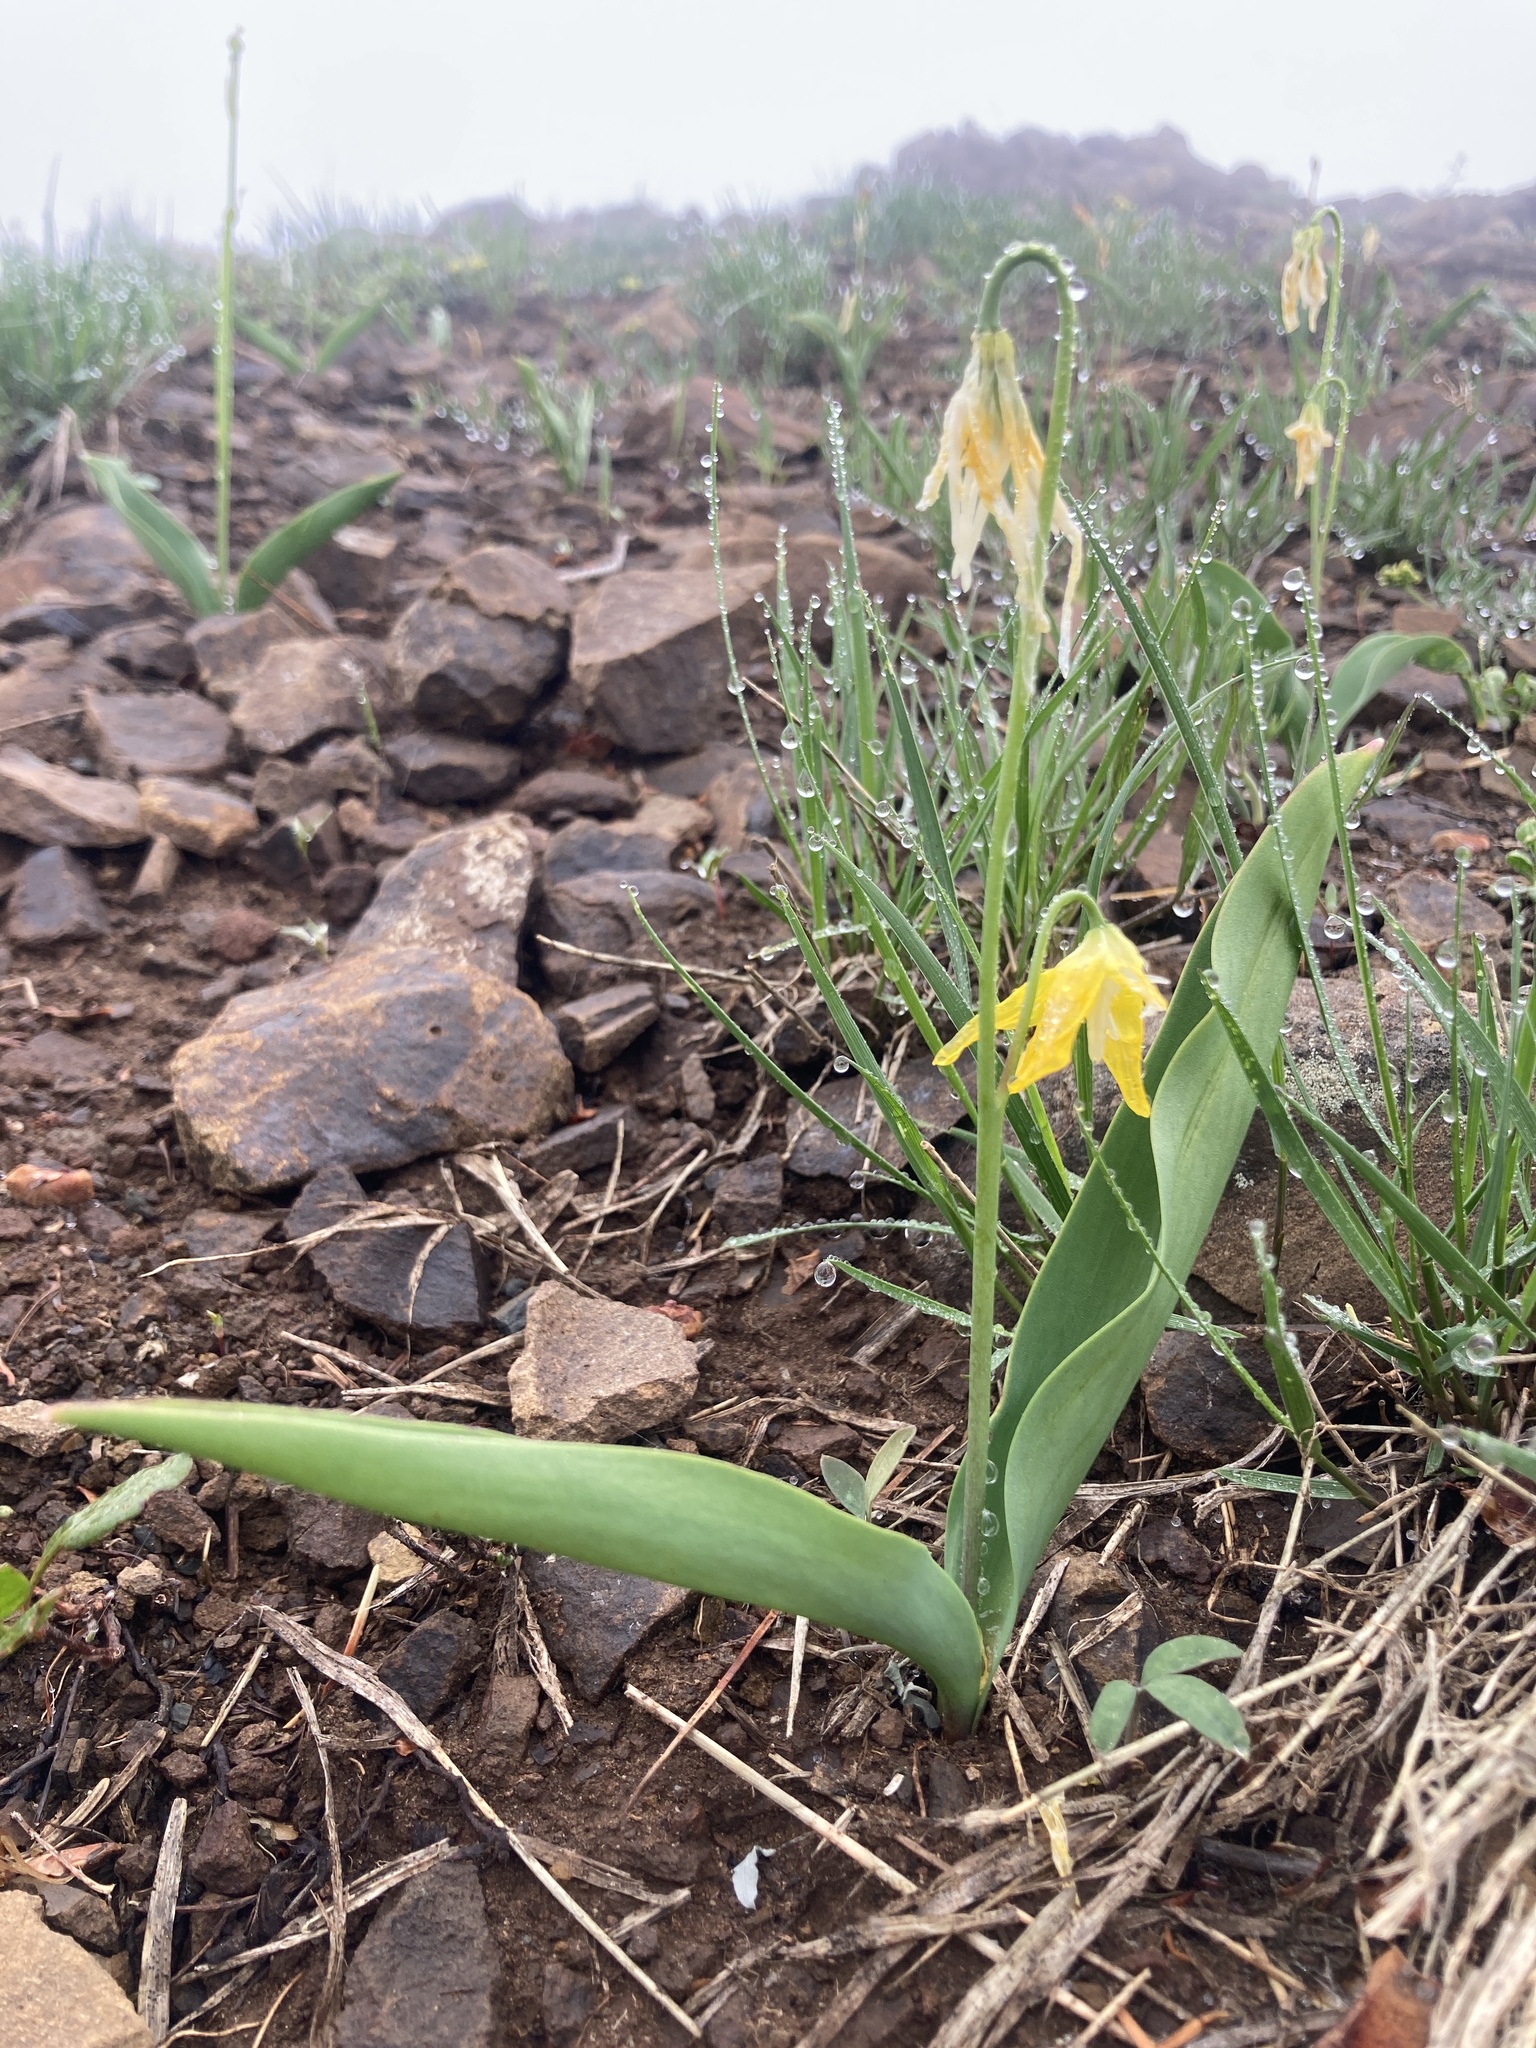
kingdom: Plantae
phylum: Tracheophyta
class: Liliopsida
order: Liliales
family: Liliaceae
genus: Erythronium
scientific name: Erythronium grandiflorum
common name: Avalanche-lily
